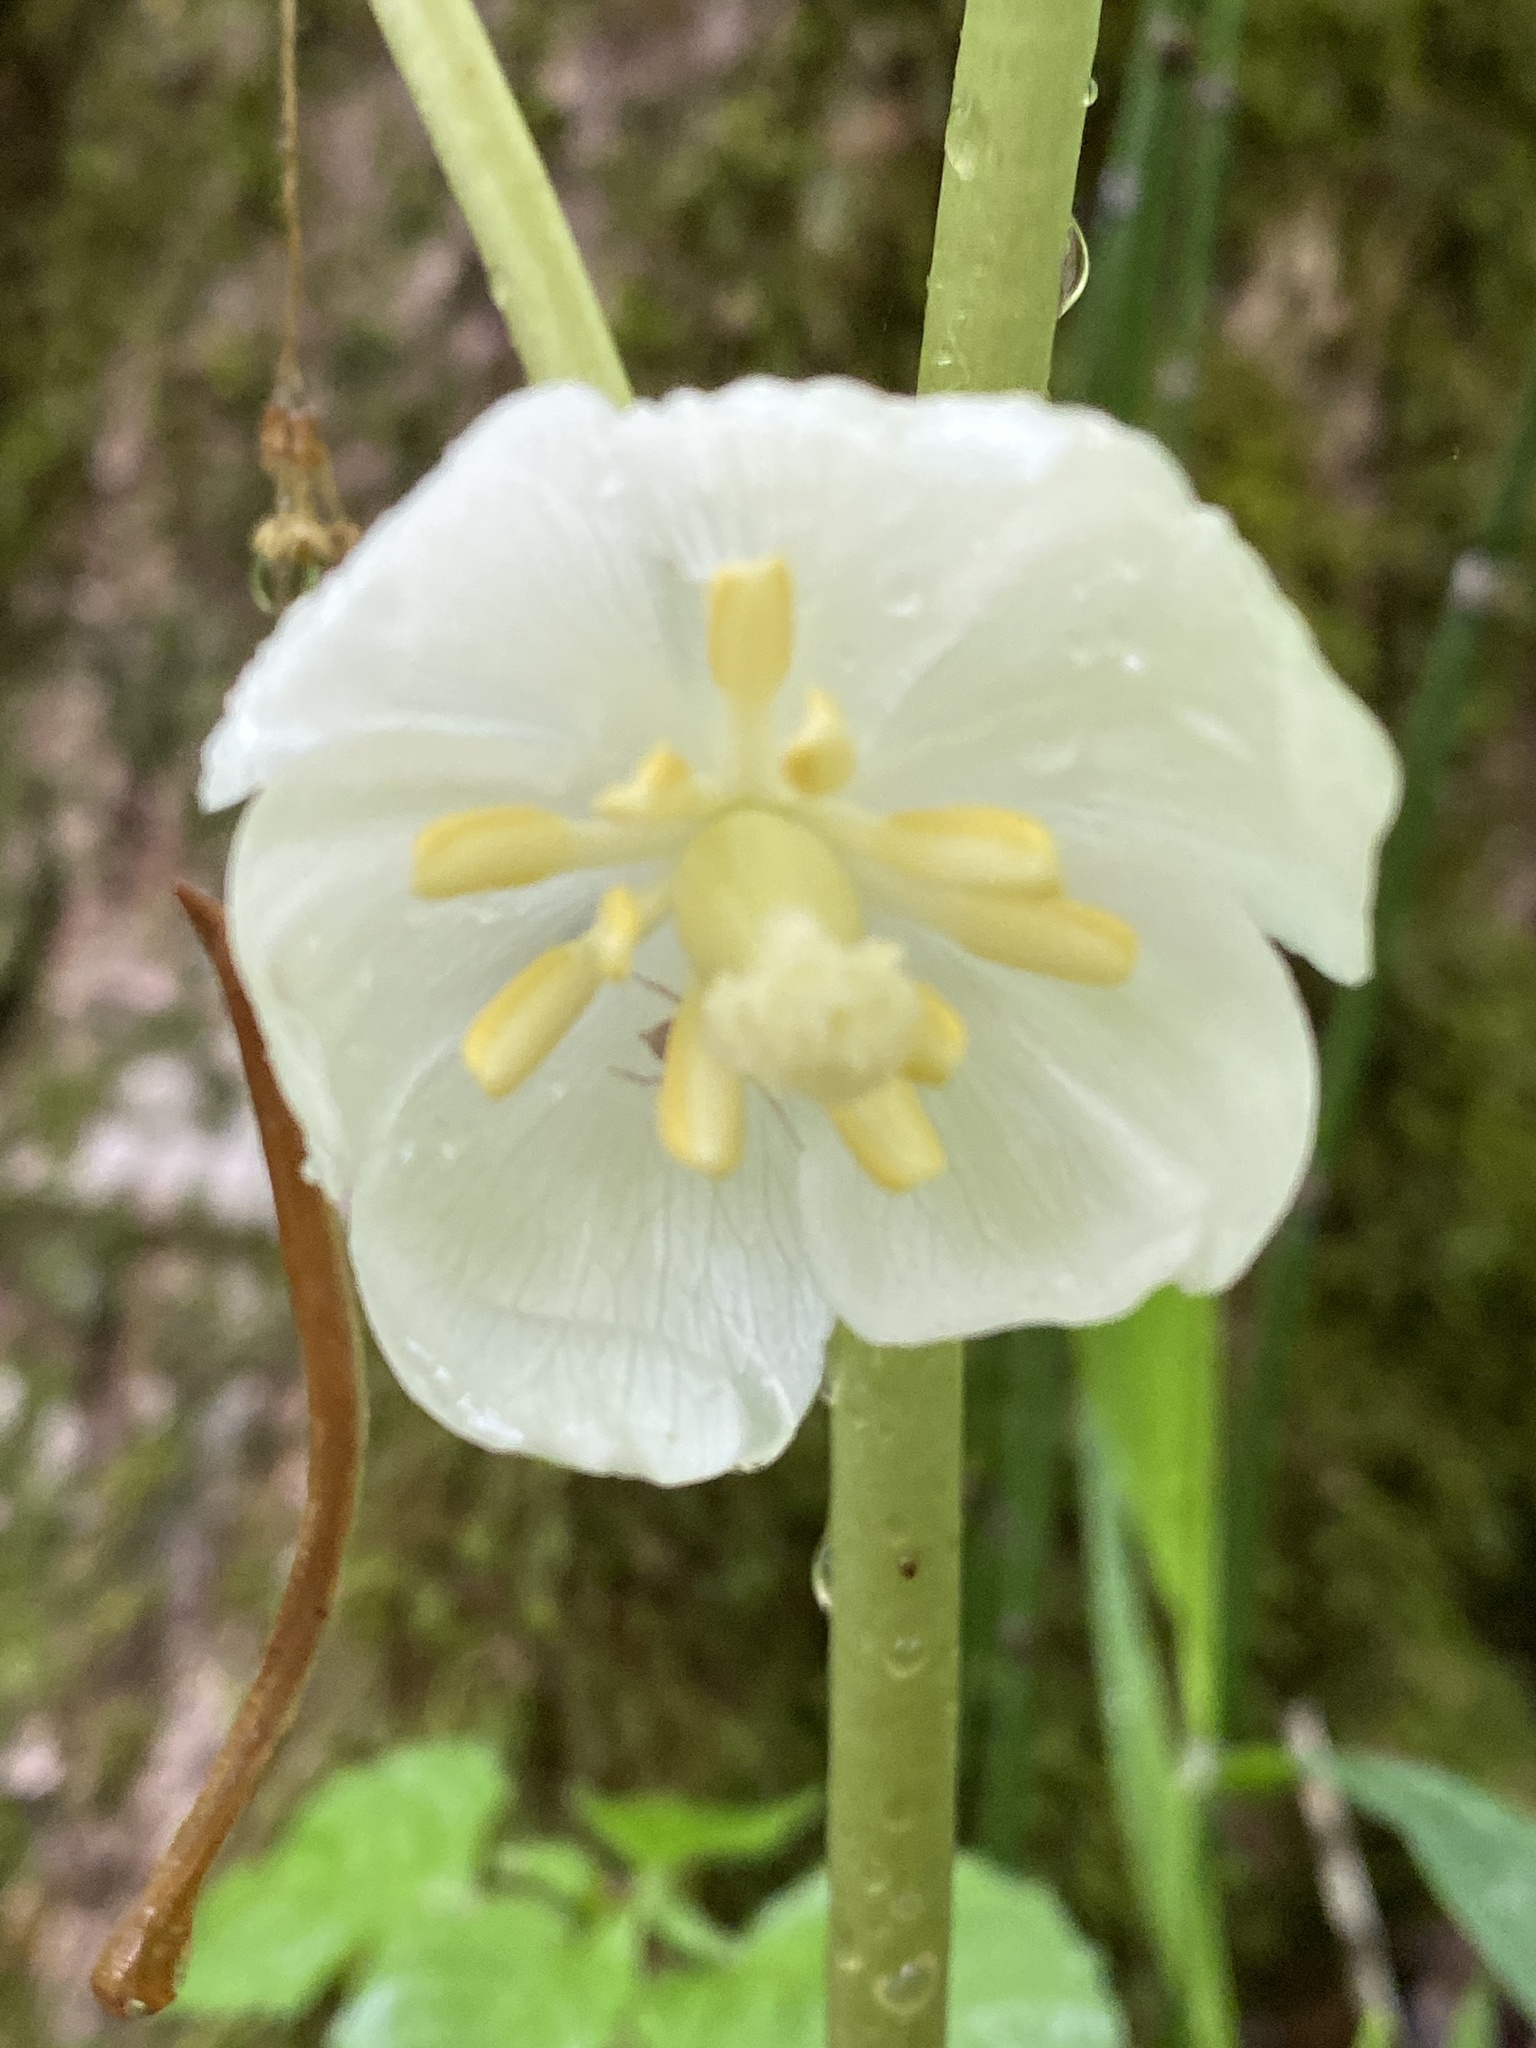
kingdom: Plantae
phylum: Tracheophyta
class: Magnoliopsida
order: Ranunculales
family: Berberidaceae
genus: Podophyllum
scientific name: Podophyllum peltatum
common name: Wild mandrake
